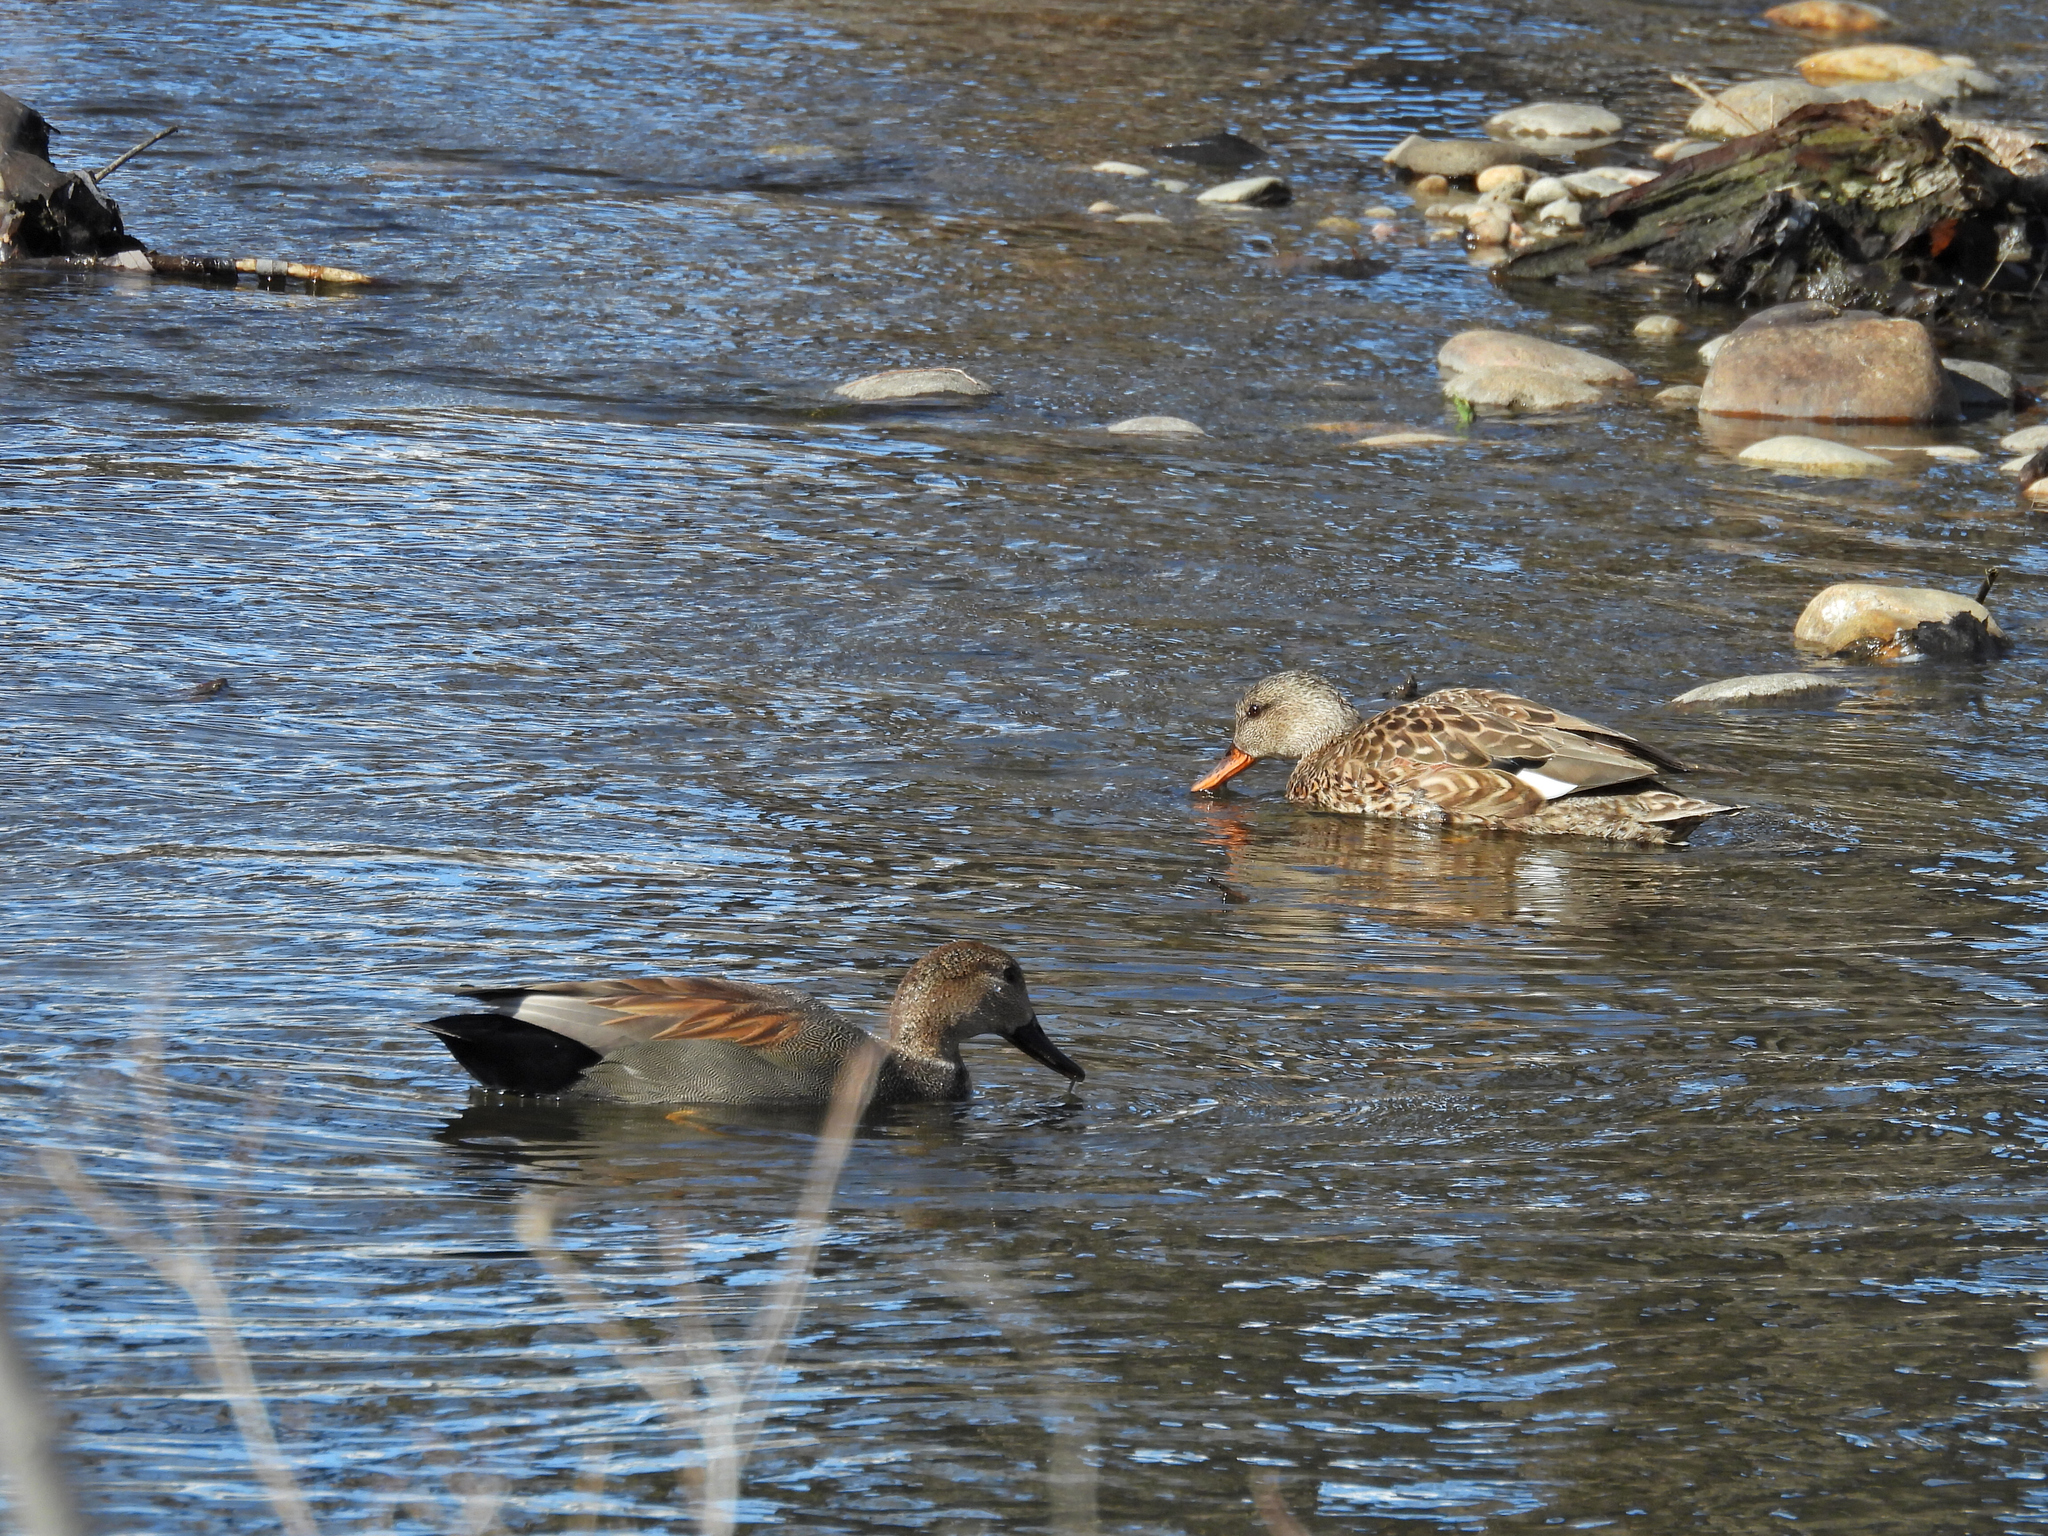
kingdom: Animalia
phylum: Chordata
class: Aves
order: Anseriformes
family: Anatidae
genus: Mareca
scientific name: Mareca strepera
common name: Gadwall
